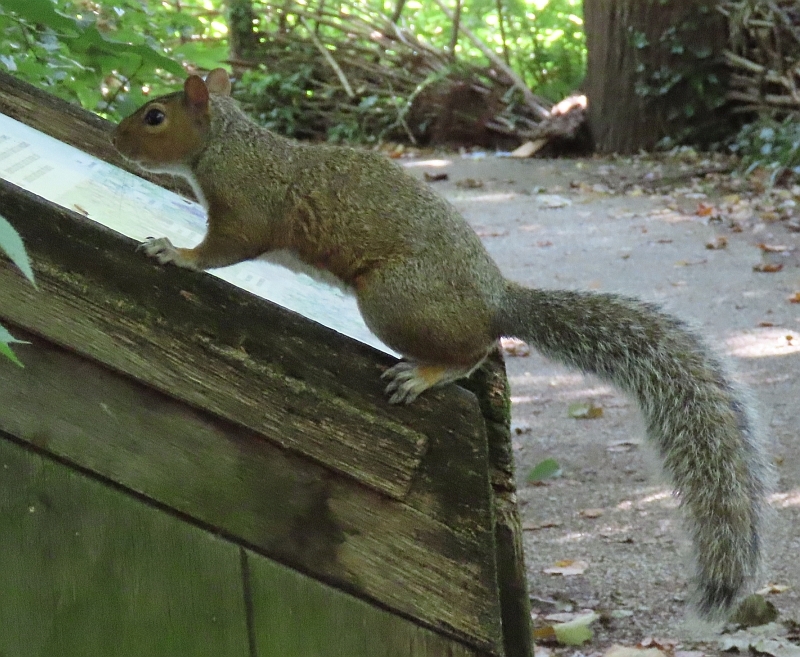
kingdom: Animalia
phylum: Chordata
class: Mammalia
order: Rodentia
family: Sciuridae
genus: Sciurus
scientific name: Sciurus carolinensis
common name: Eastern gray squirrel
